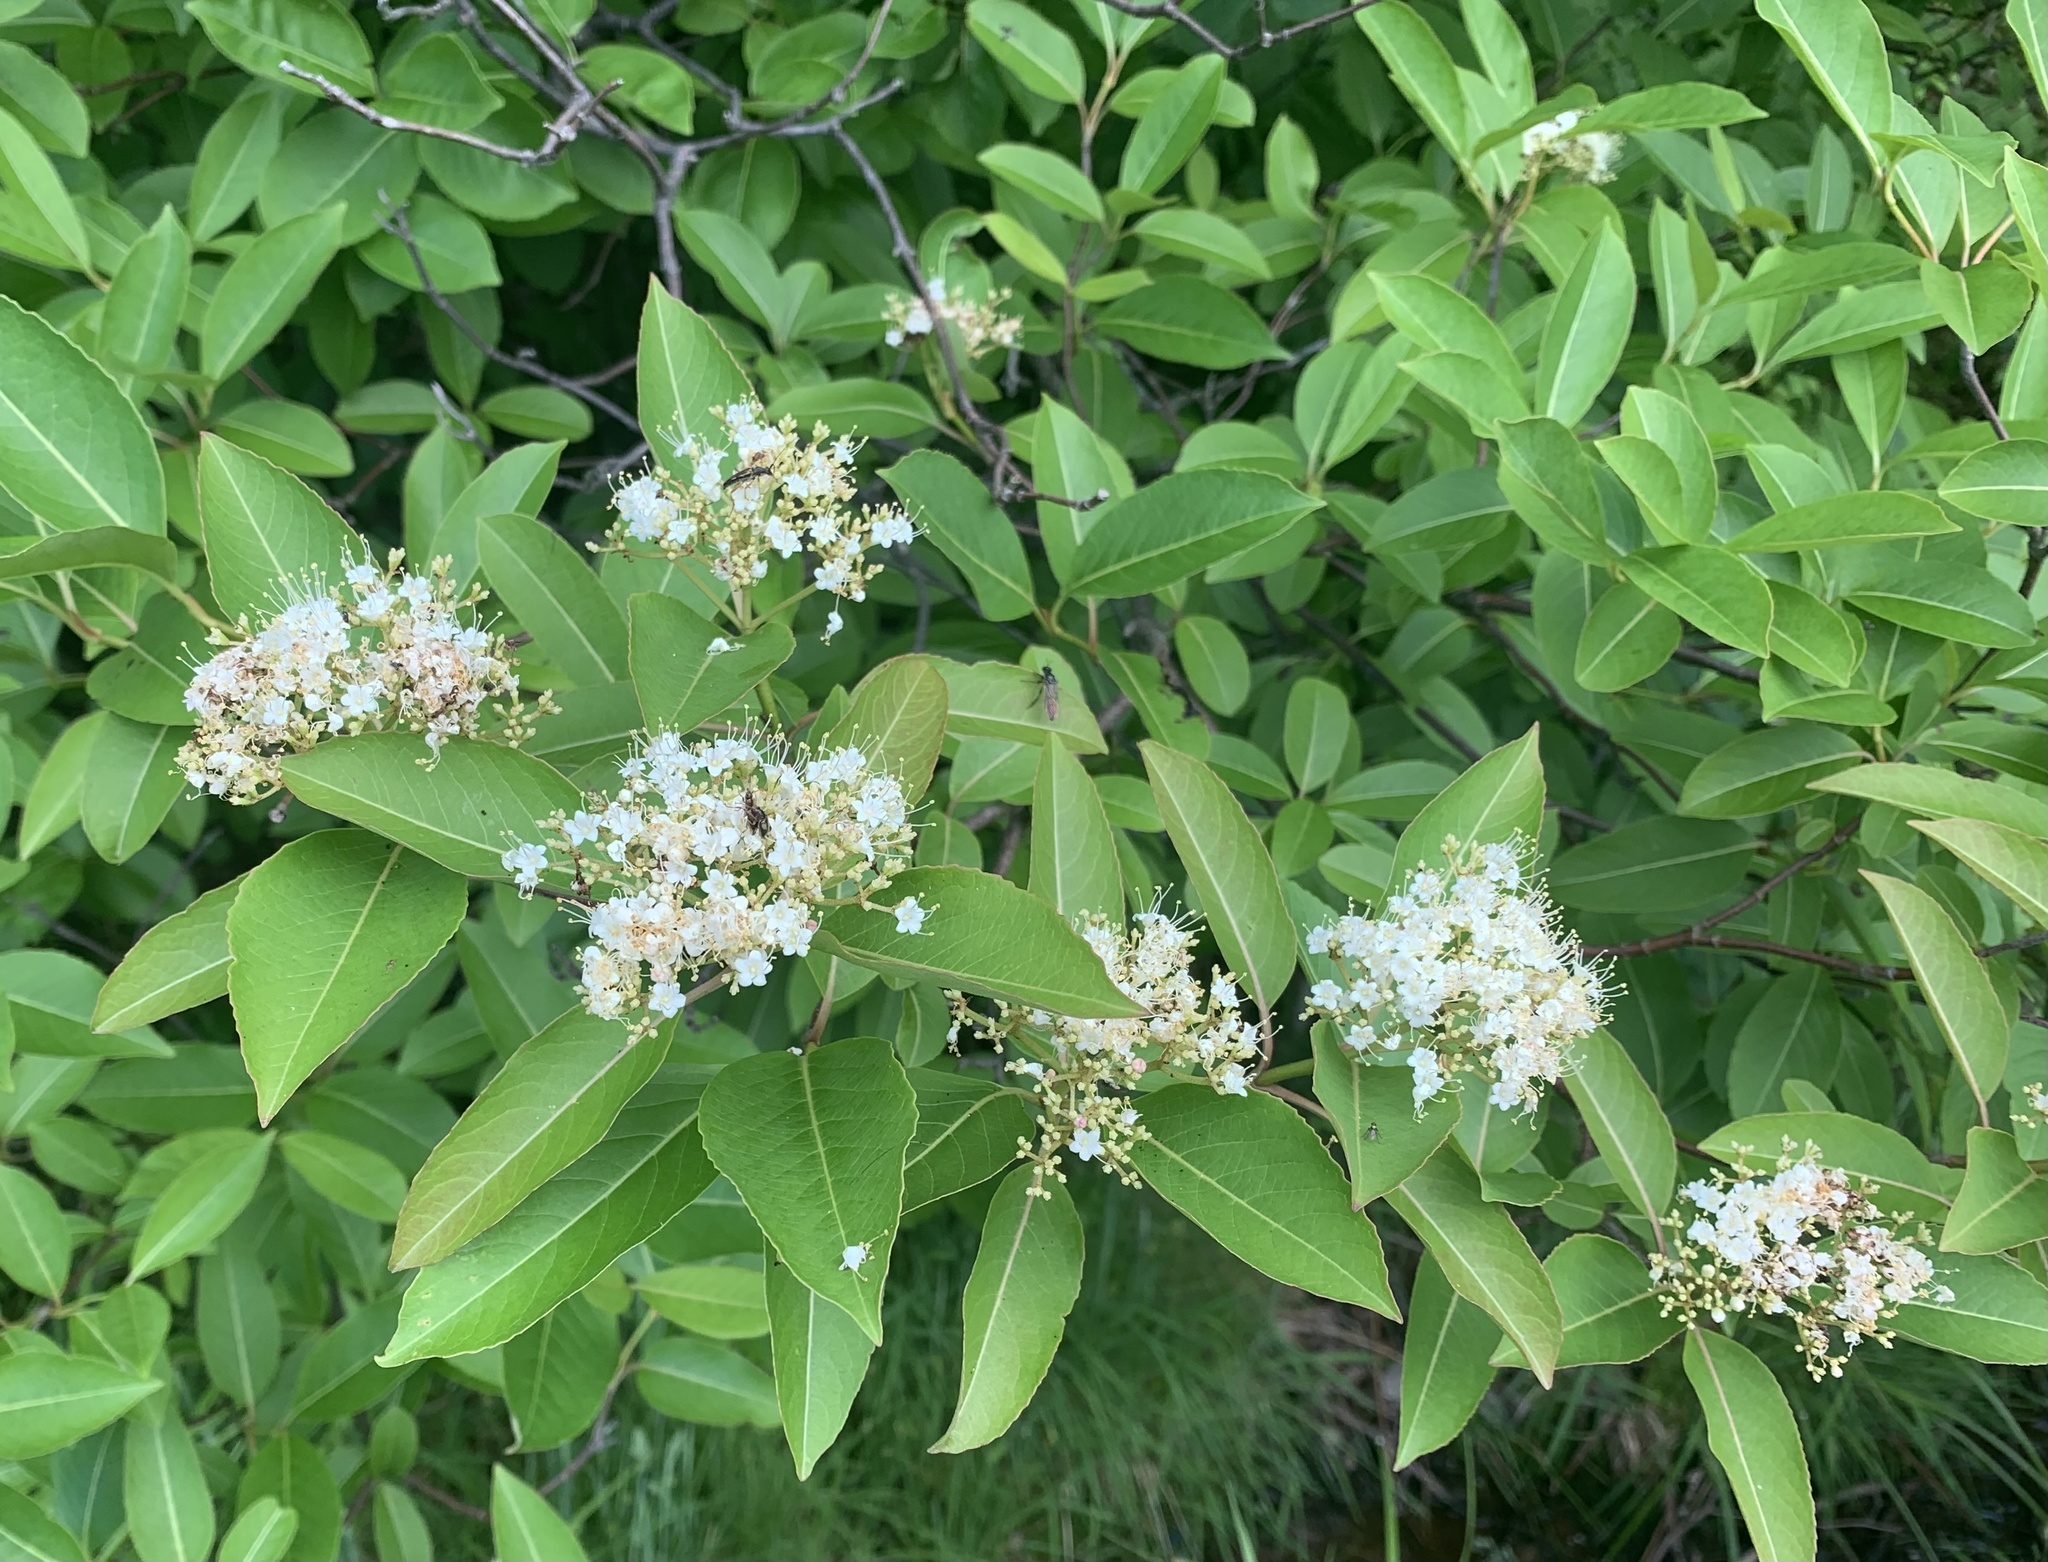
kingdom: Plantae
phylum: Tracheophyta
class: Magnoliopsida
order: Dipsacales
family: Viburnaceae
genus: Viburnum
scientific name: Viburnum cassinoides
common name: Swamp haw
